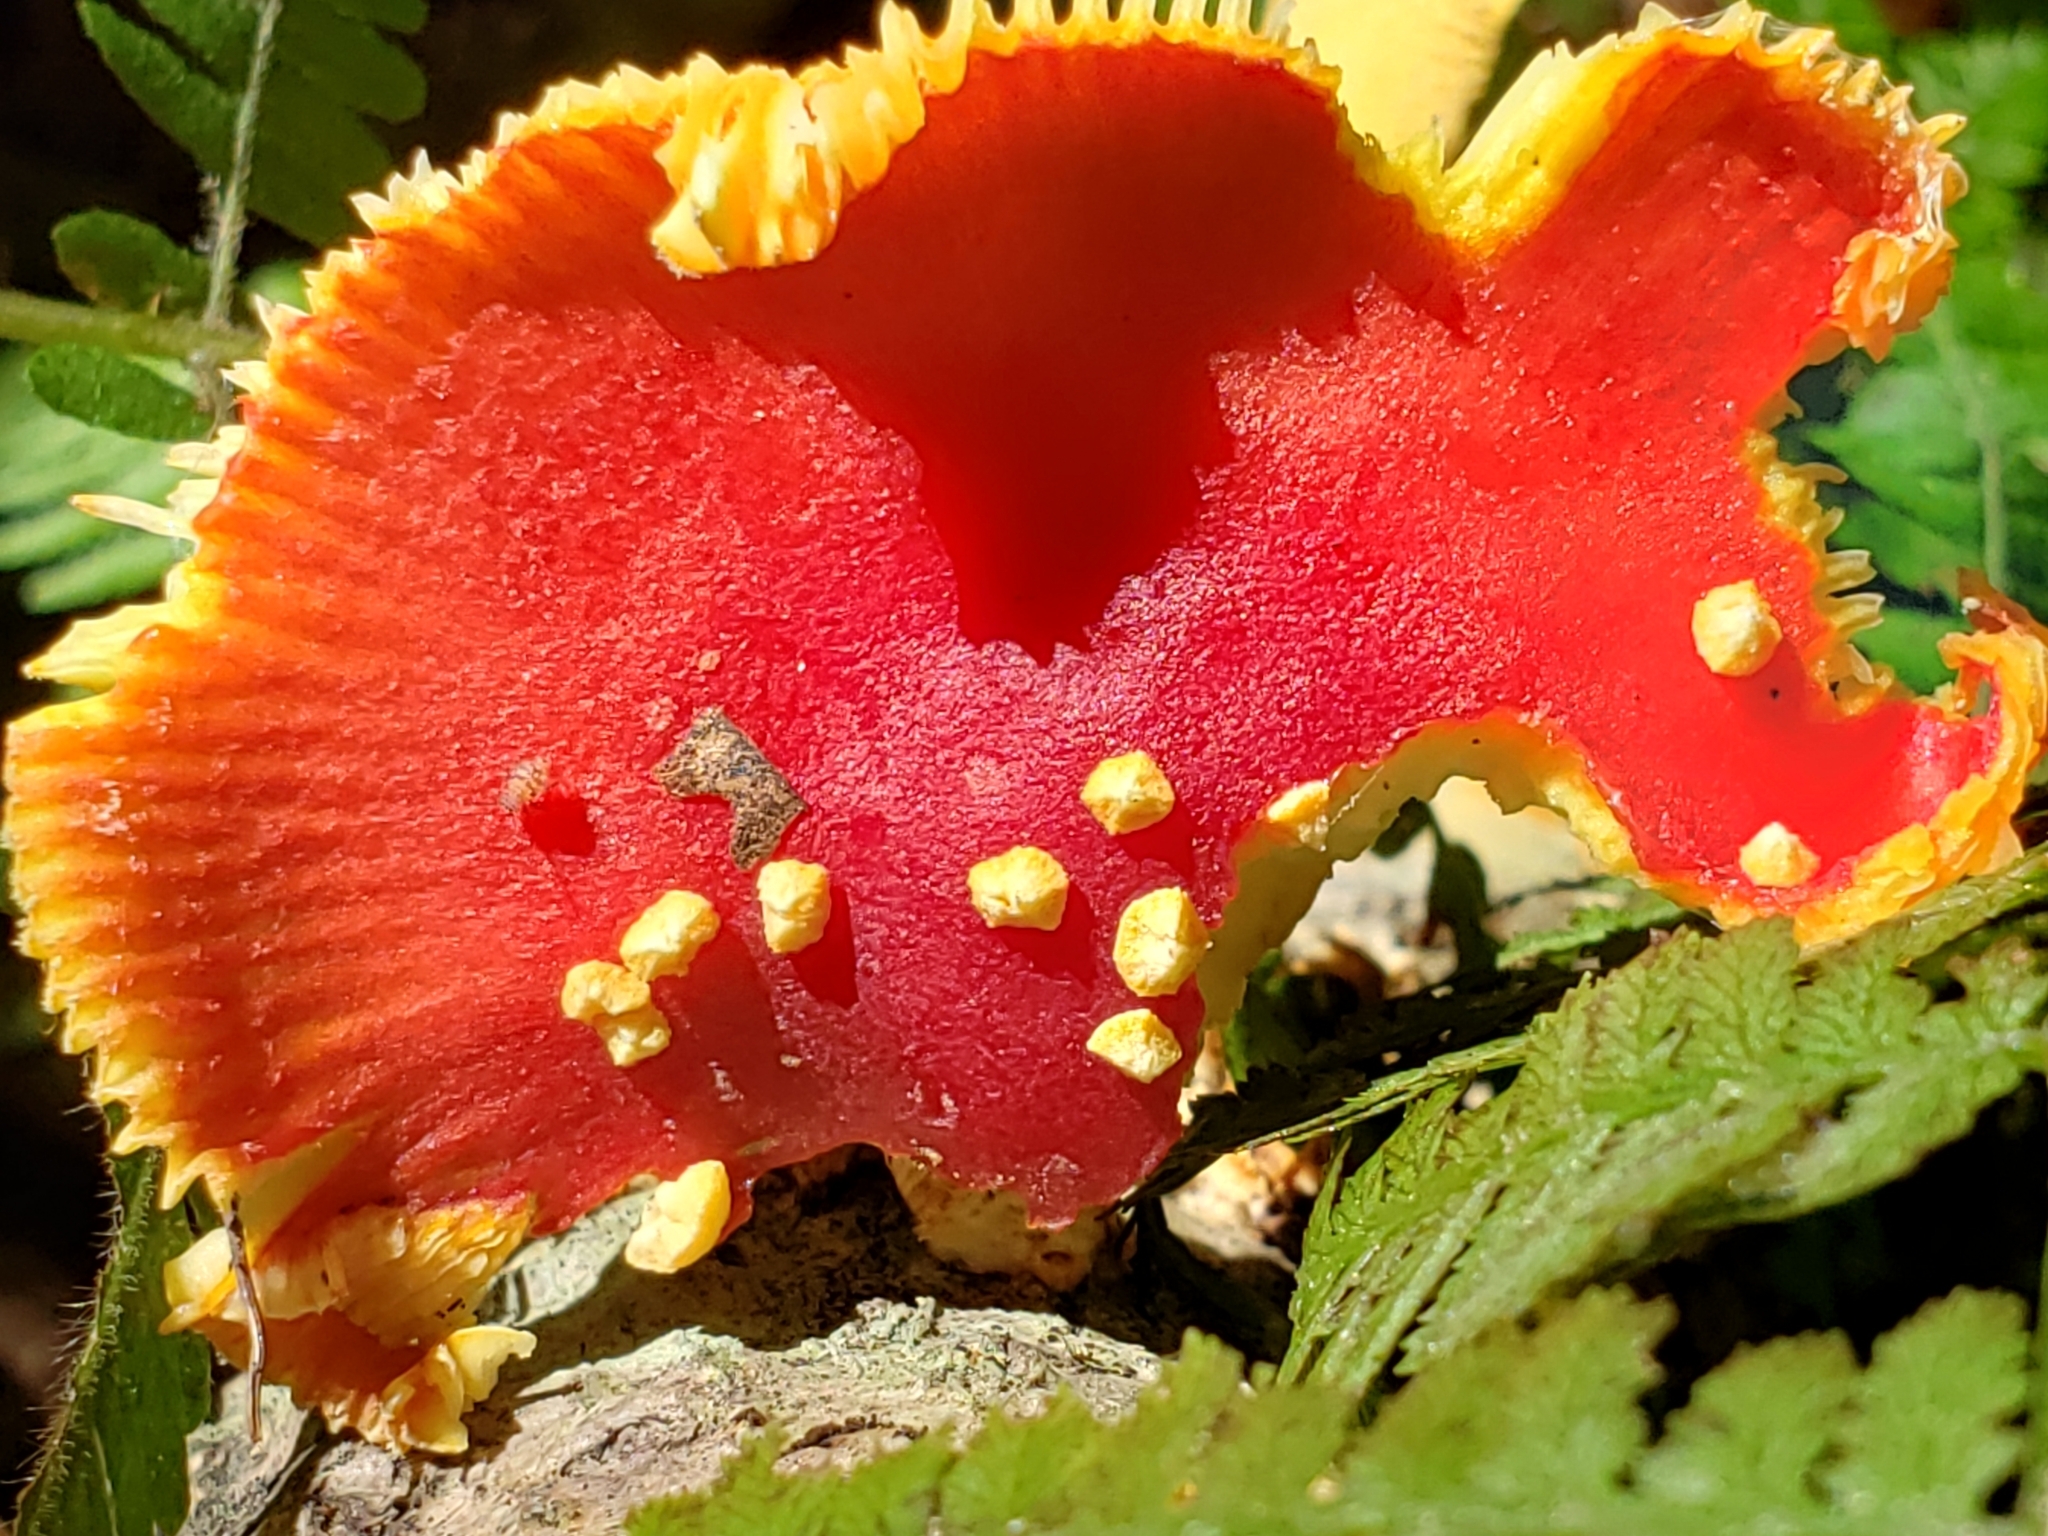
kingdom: Fungi
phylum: Basidiomycota
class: Agaricomycetes
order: Agaricales
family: Amanitaceae
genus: Amanita
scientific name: Amanita parcivolvata
